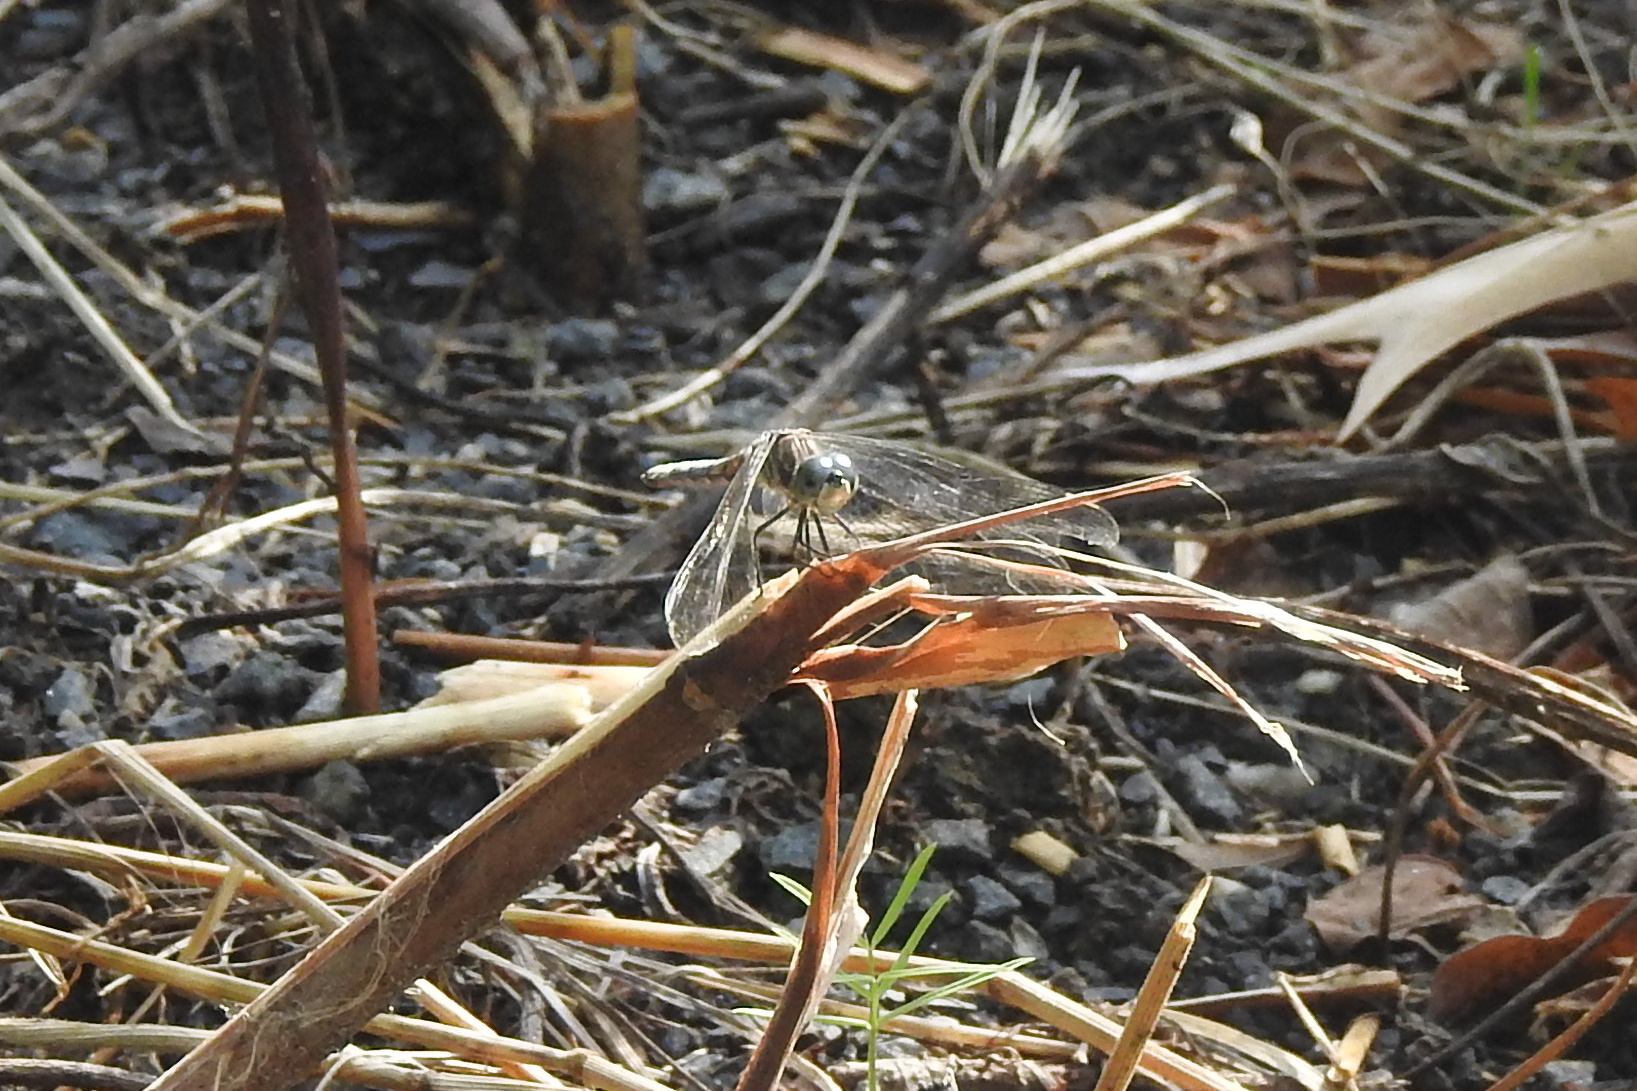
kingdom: Animalia
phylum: Arthropoda
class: Insecta
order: Odonata
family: Libellulidae
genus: Pachydiplax
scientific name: Pachydiplax longipennis
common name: Blue dasher
